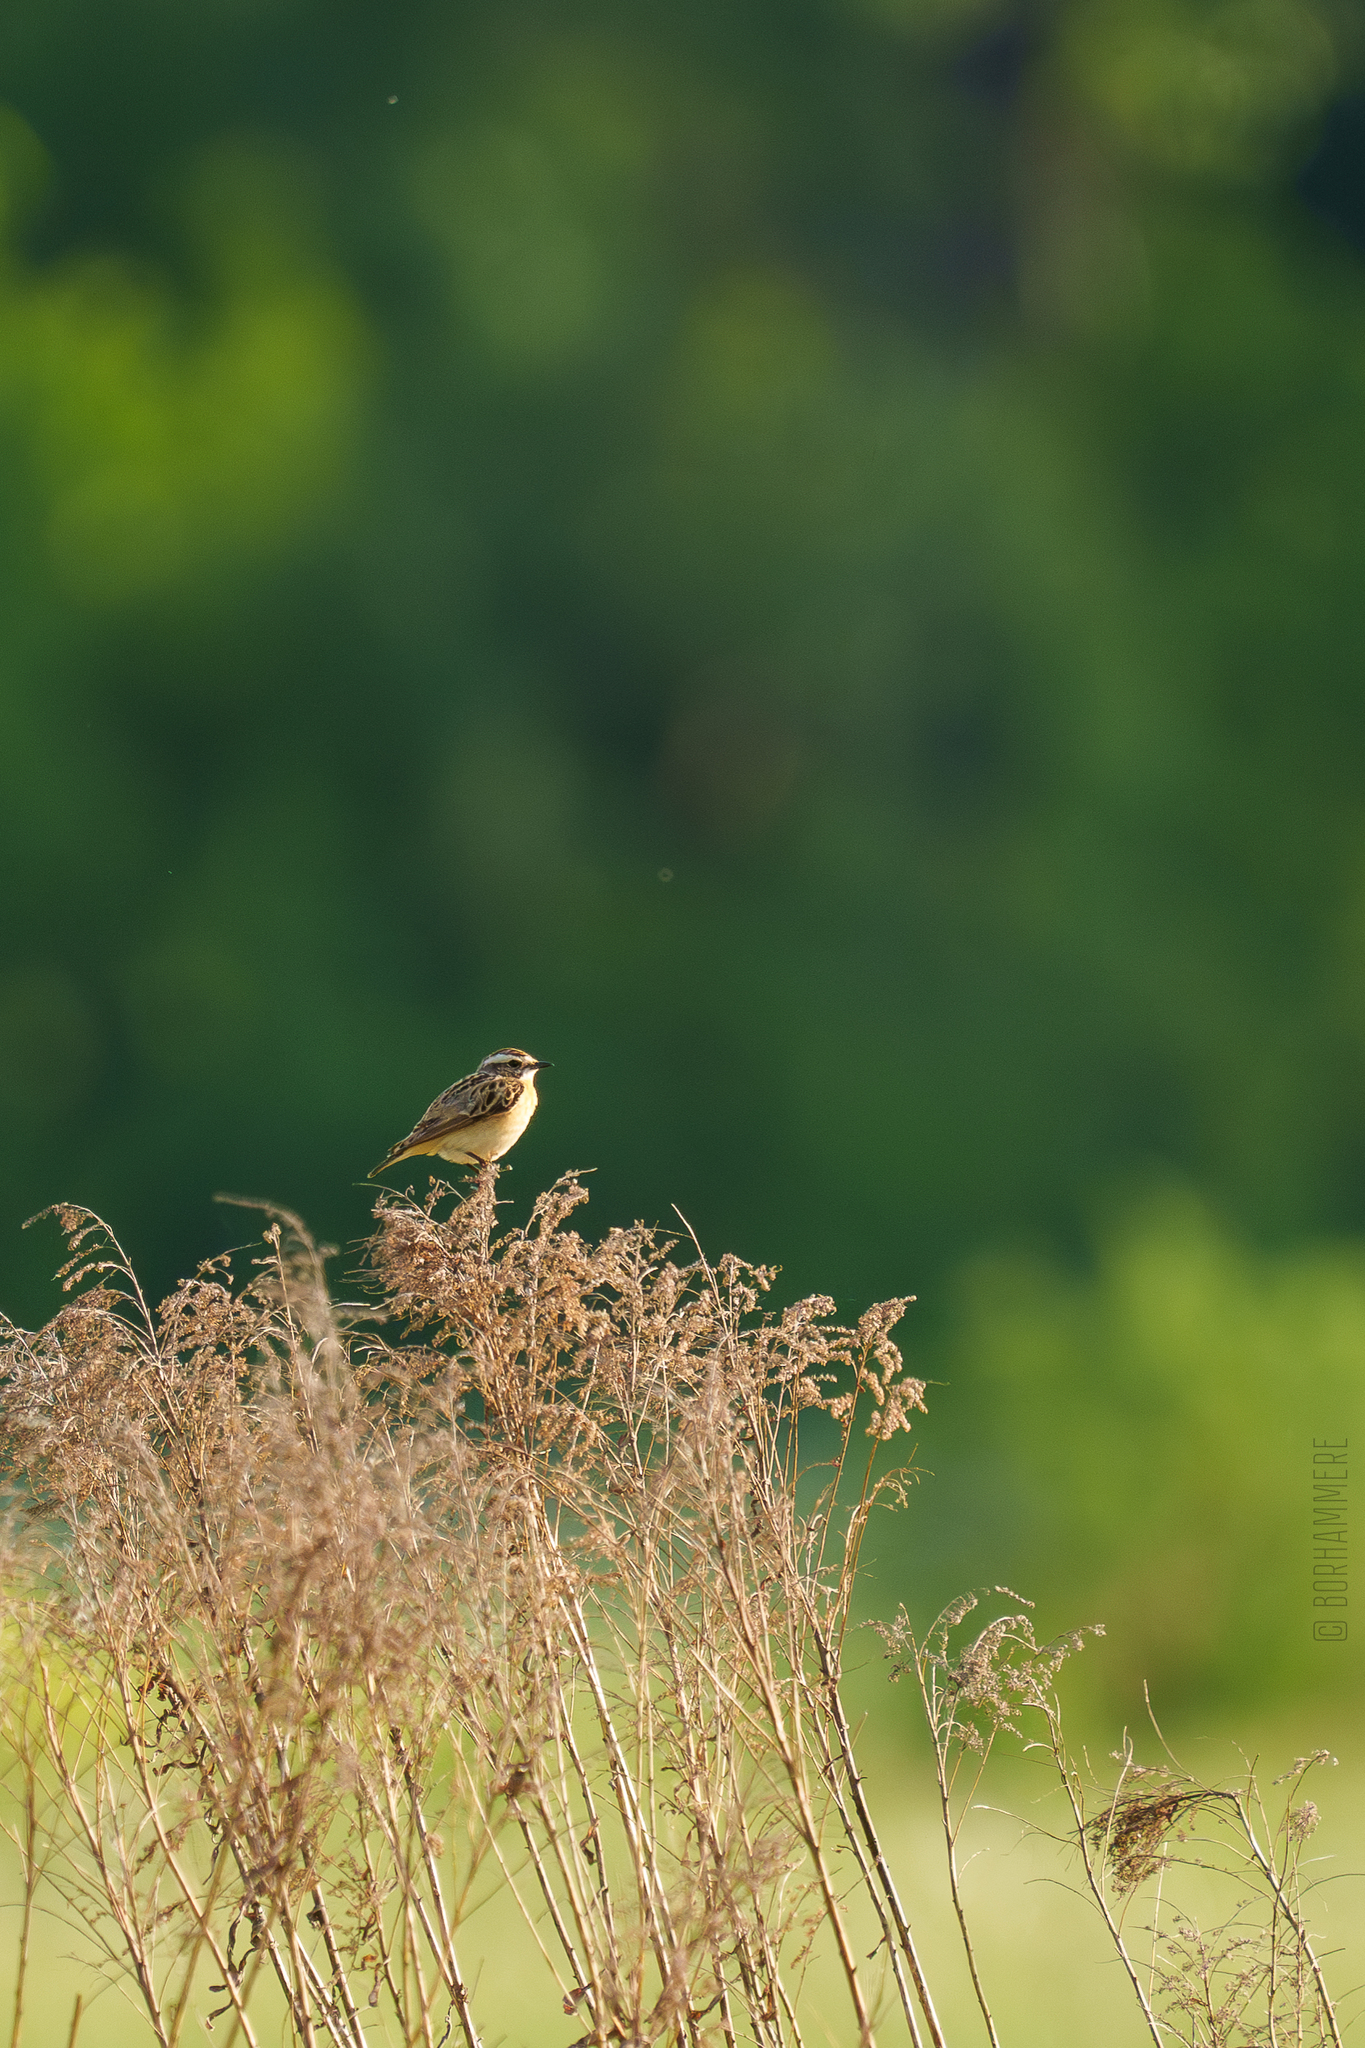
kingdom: Animalia
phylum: Chordata
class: Aves
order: Passeriformes
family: Muscicapidae
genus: Saxicola
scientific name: Saxicola rubetra
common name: Whinchat
